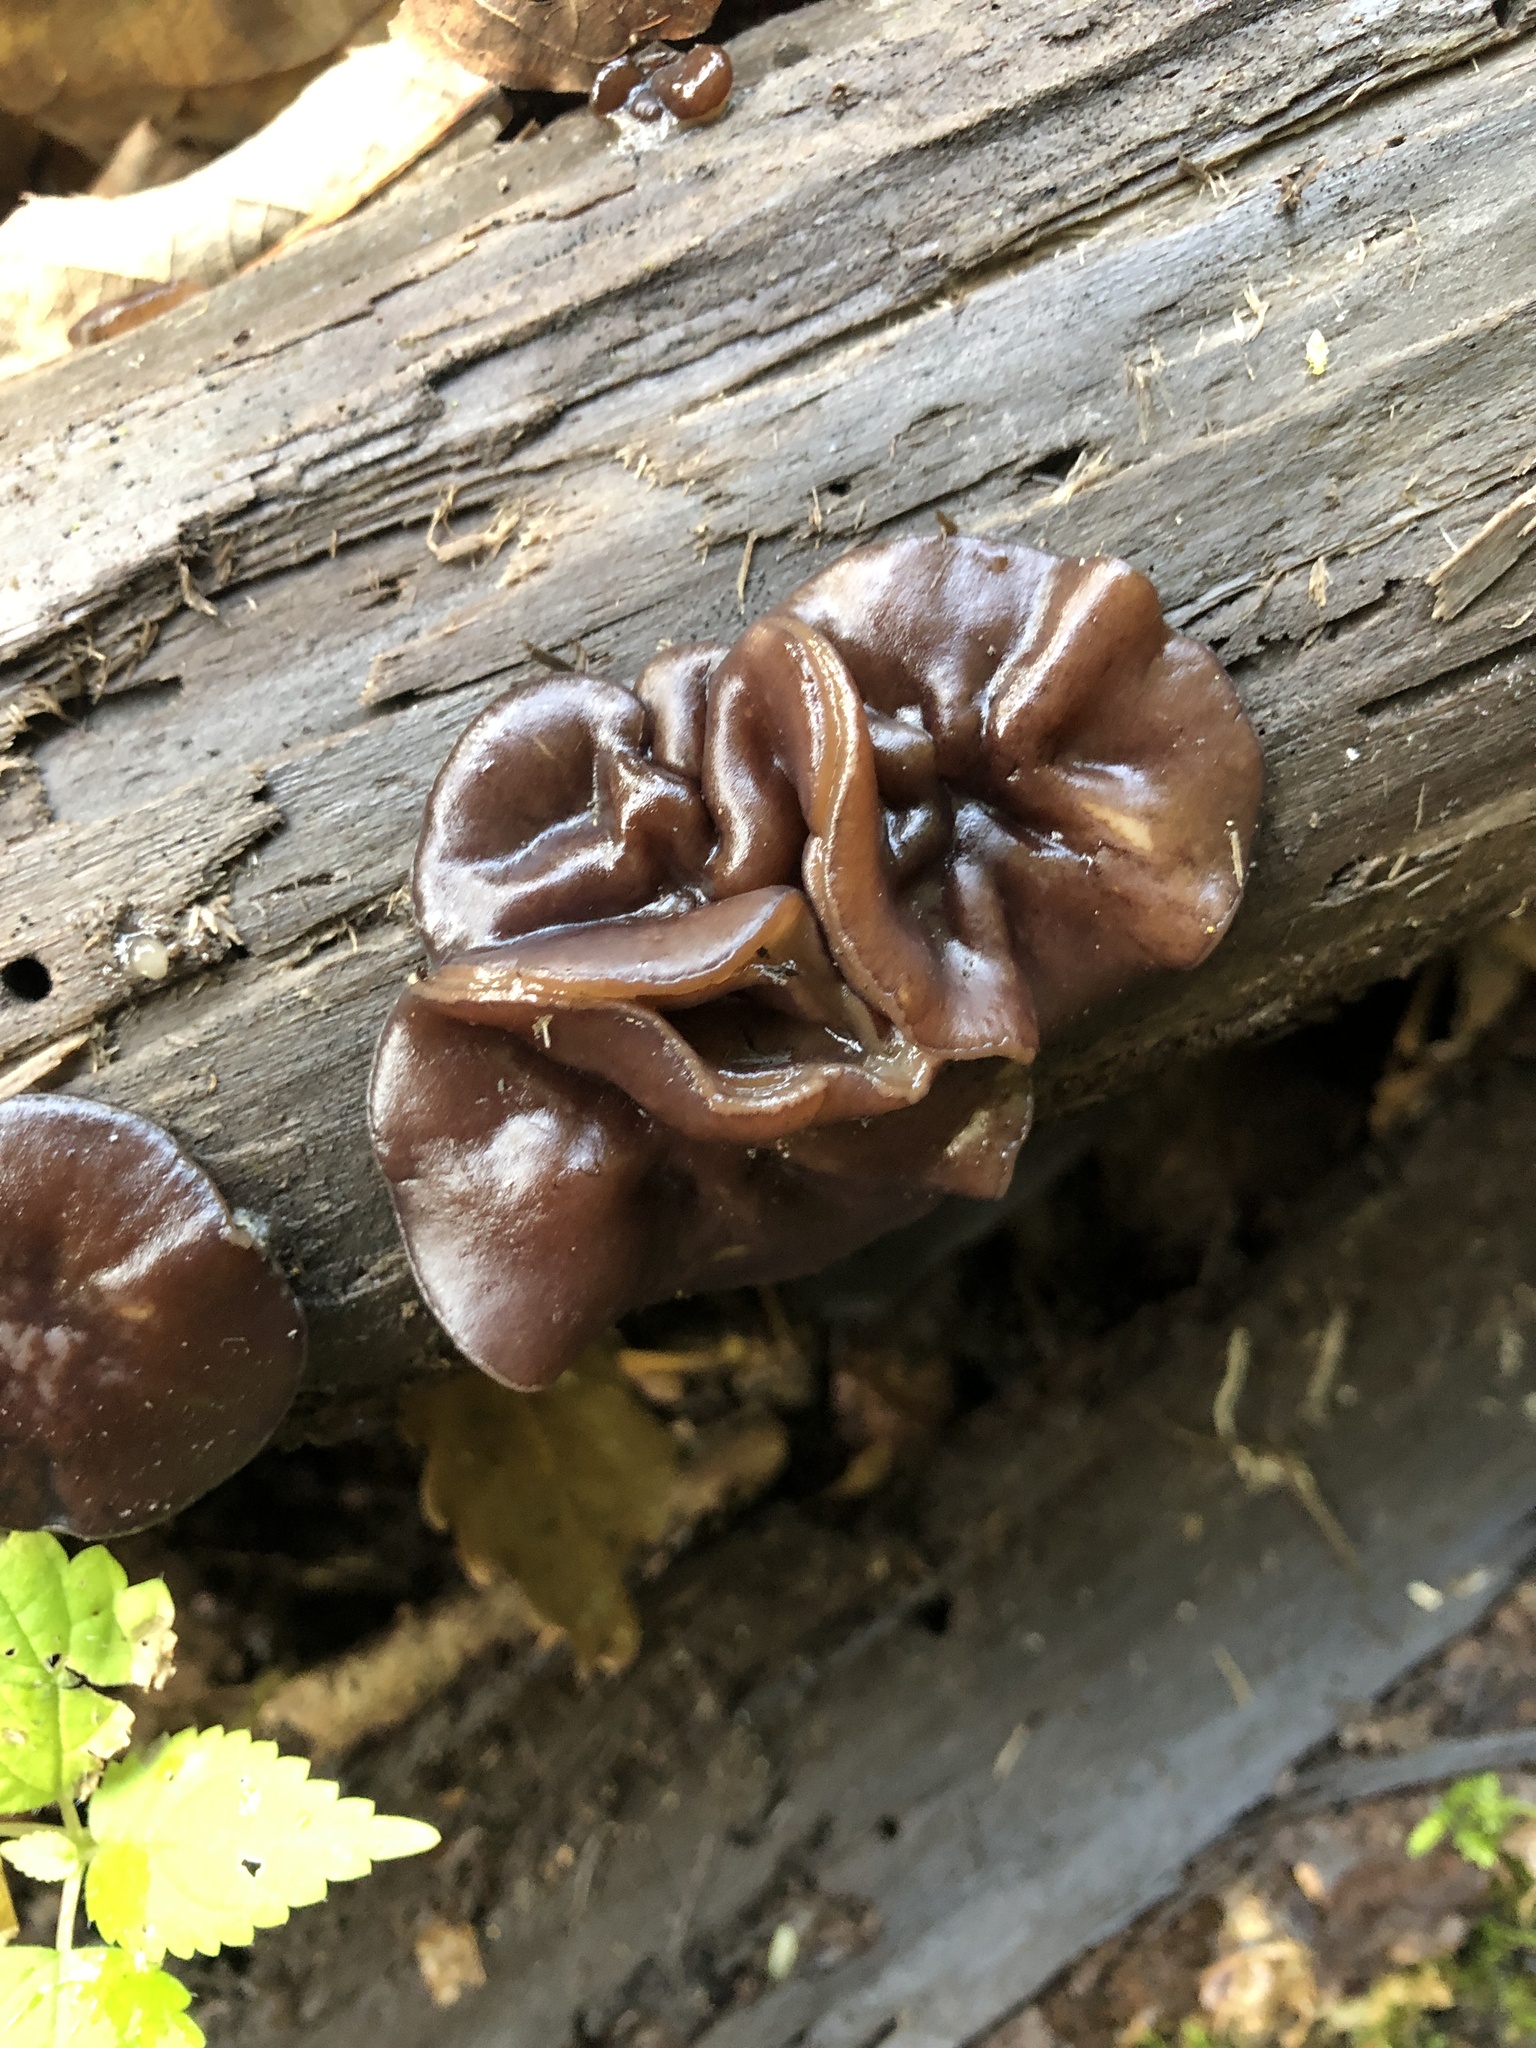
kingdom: Fungi
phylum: Ascomycota
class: Pezizomycetes
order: Pezizales
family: Pezizaceae
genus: Pachyella
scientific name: Pachyella clypeata
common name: Copper penny fungus
